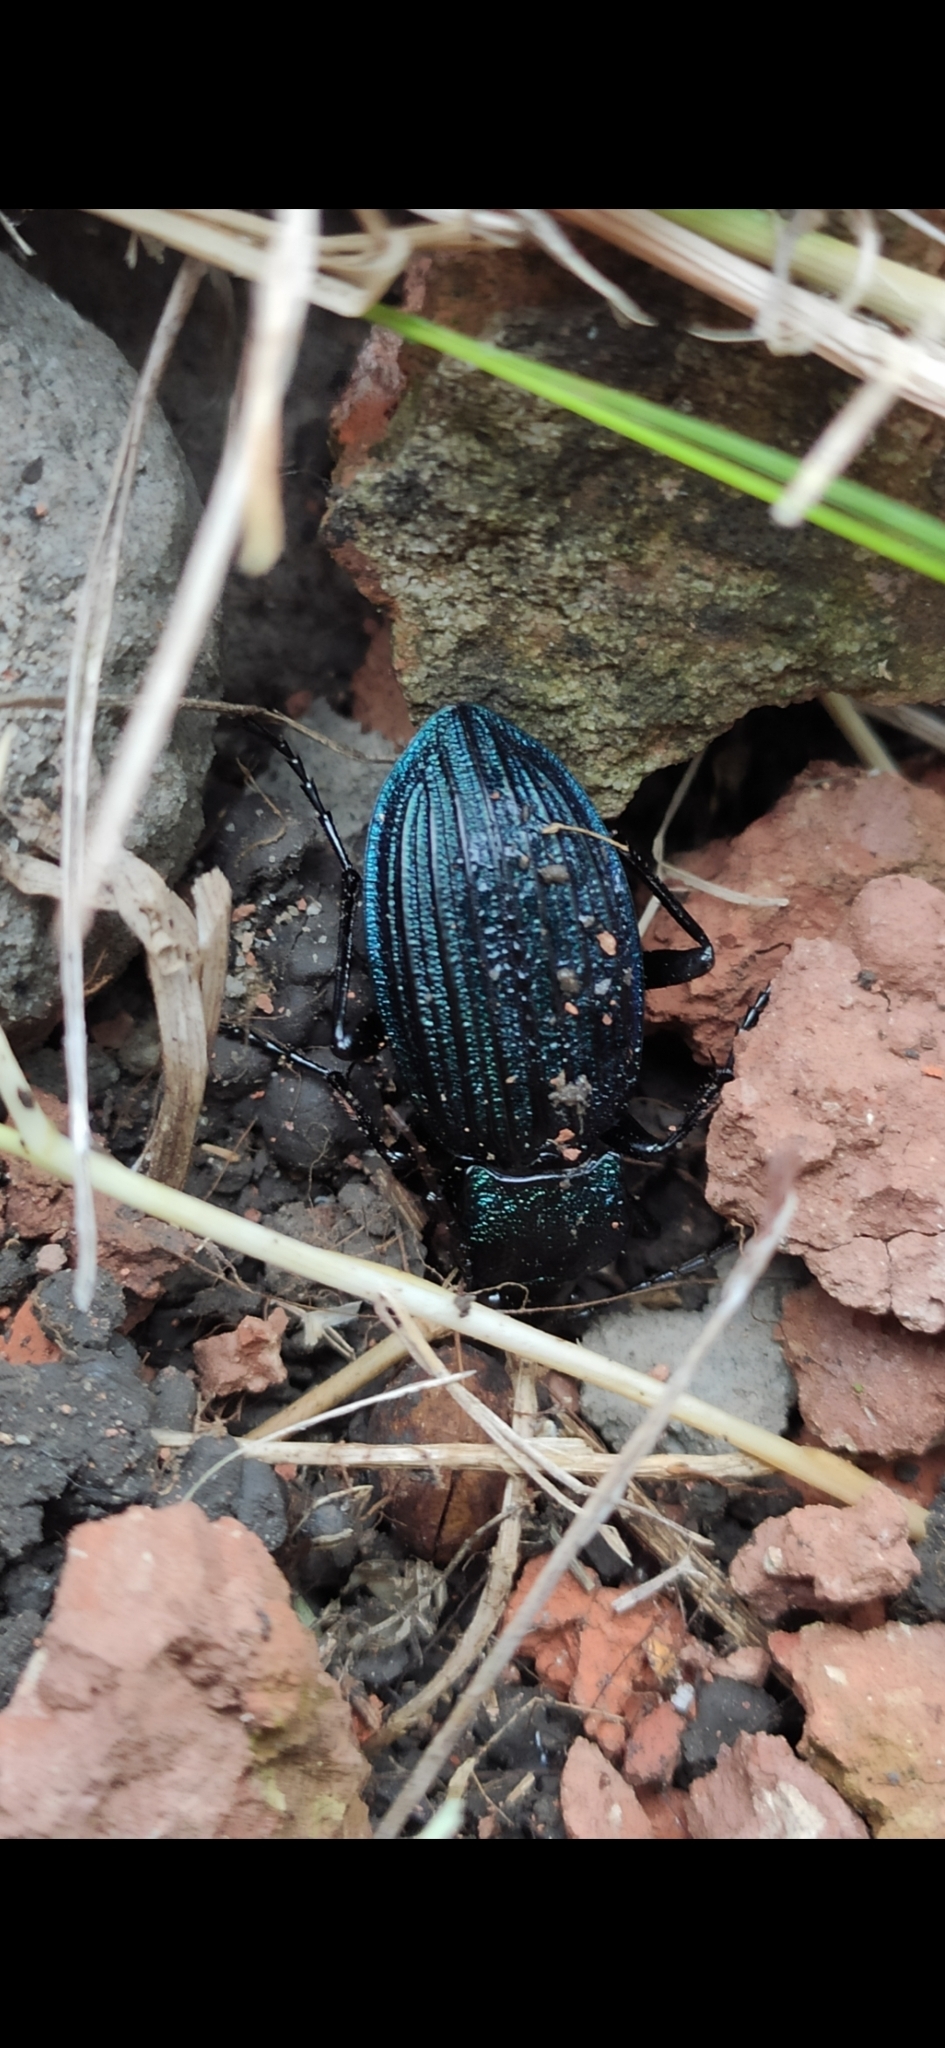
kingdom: Animalia
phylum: Arthropoda
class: Insecta
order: Coleoptera
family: Carabidae
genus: Carabus
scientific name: Carabus exaratus
